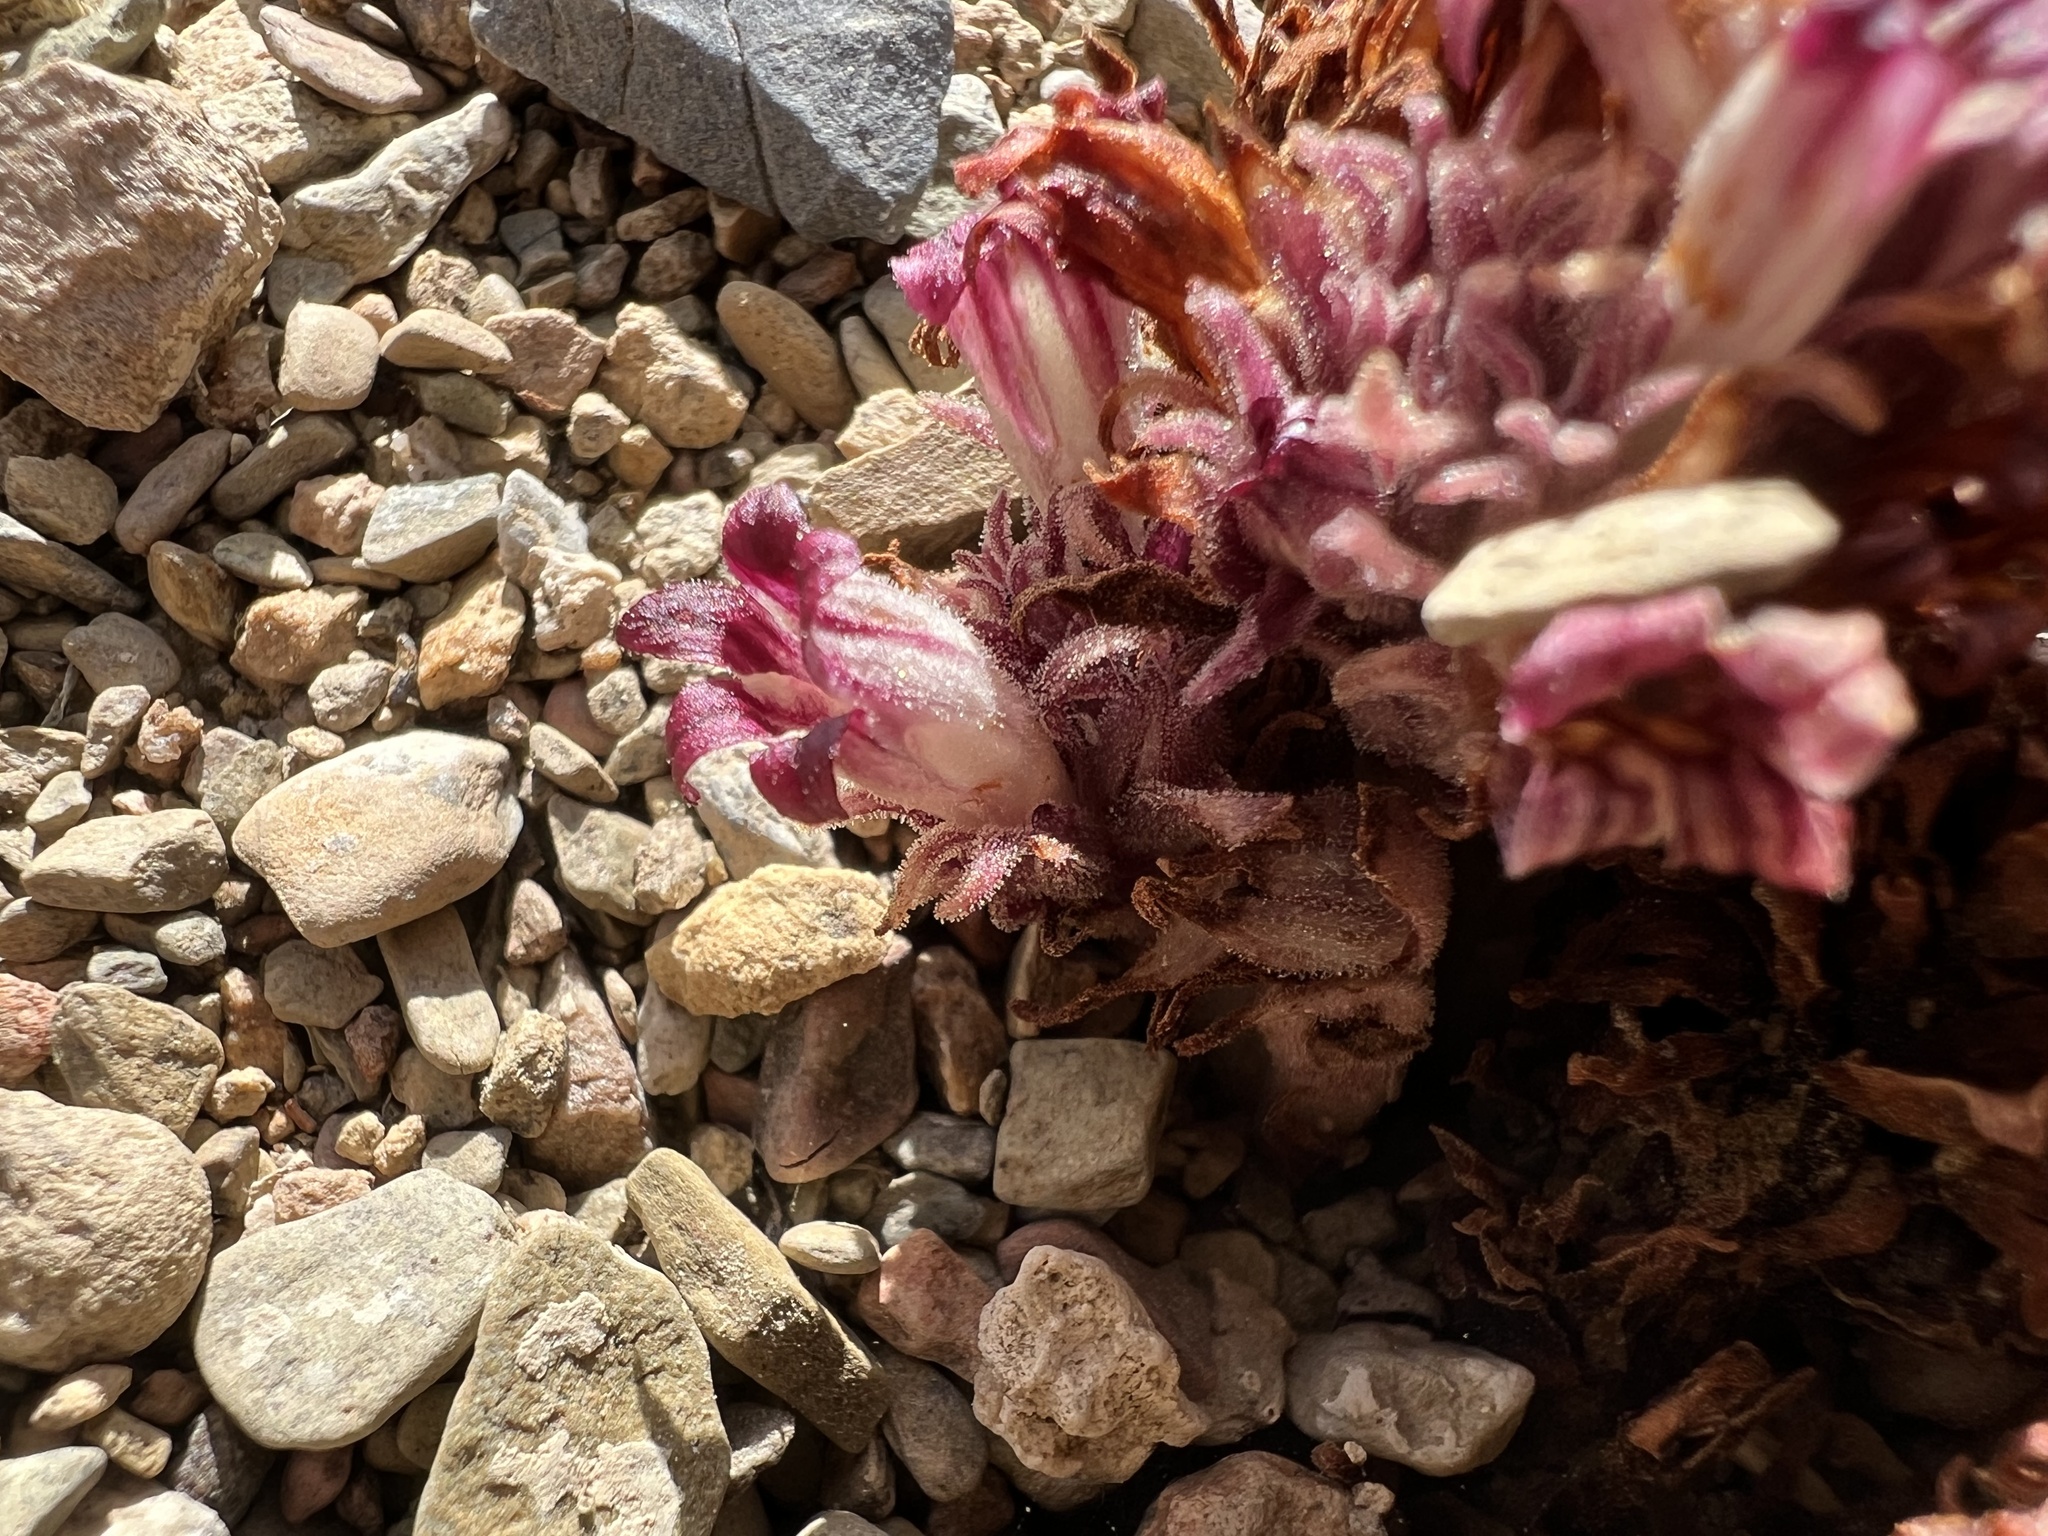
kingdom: Plantae
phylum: Tracheophyta
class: Magnoliopsida
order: Lamiales
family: Orobanchaceae
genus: Aphyllon
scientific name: Aphyllon corymbosum
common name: Flat-top broomrape
